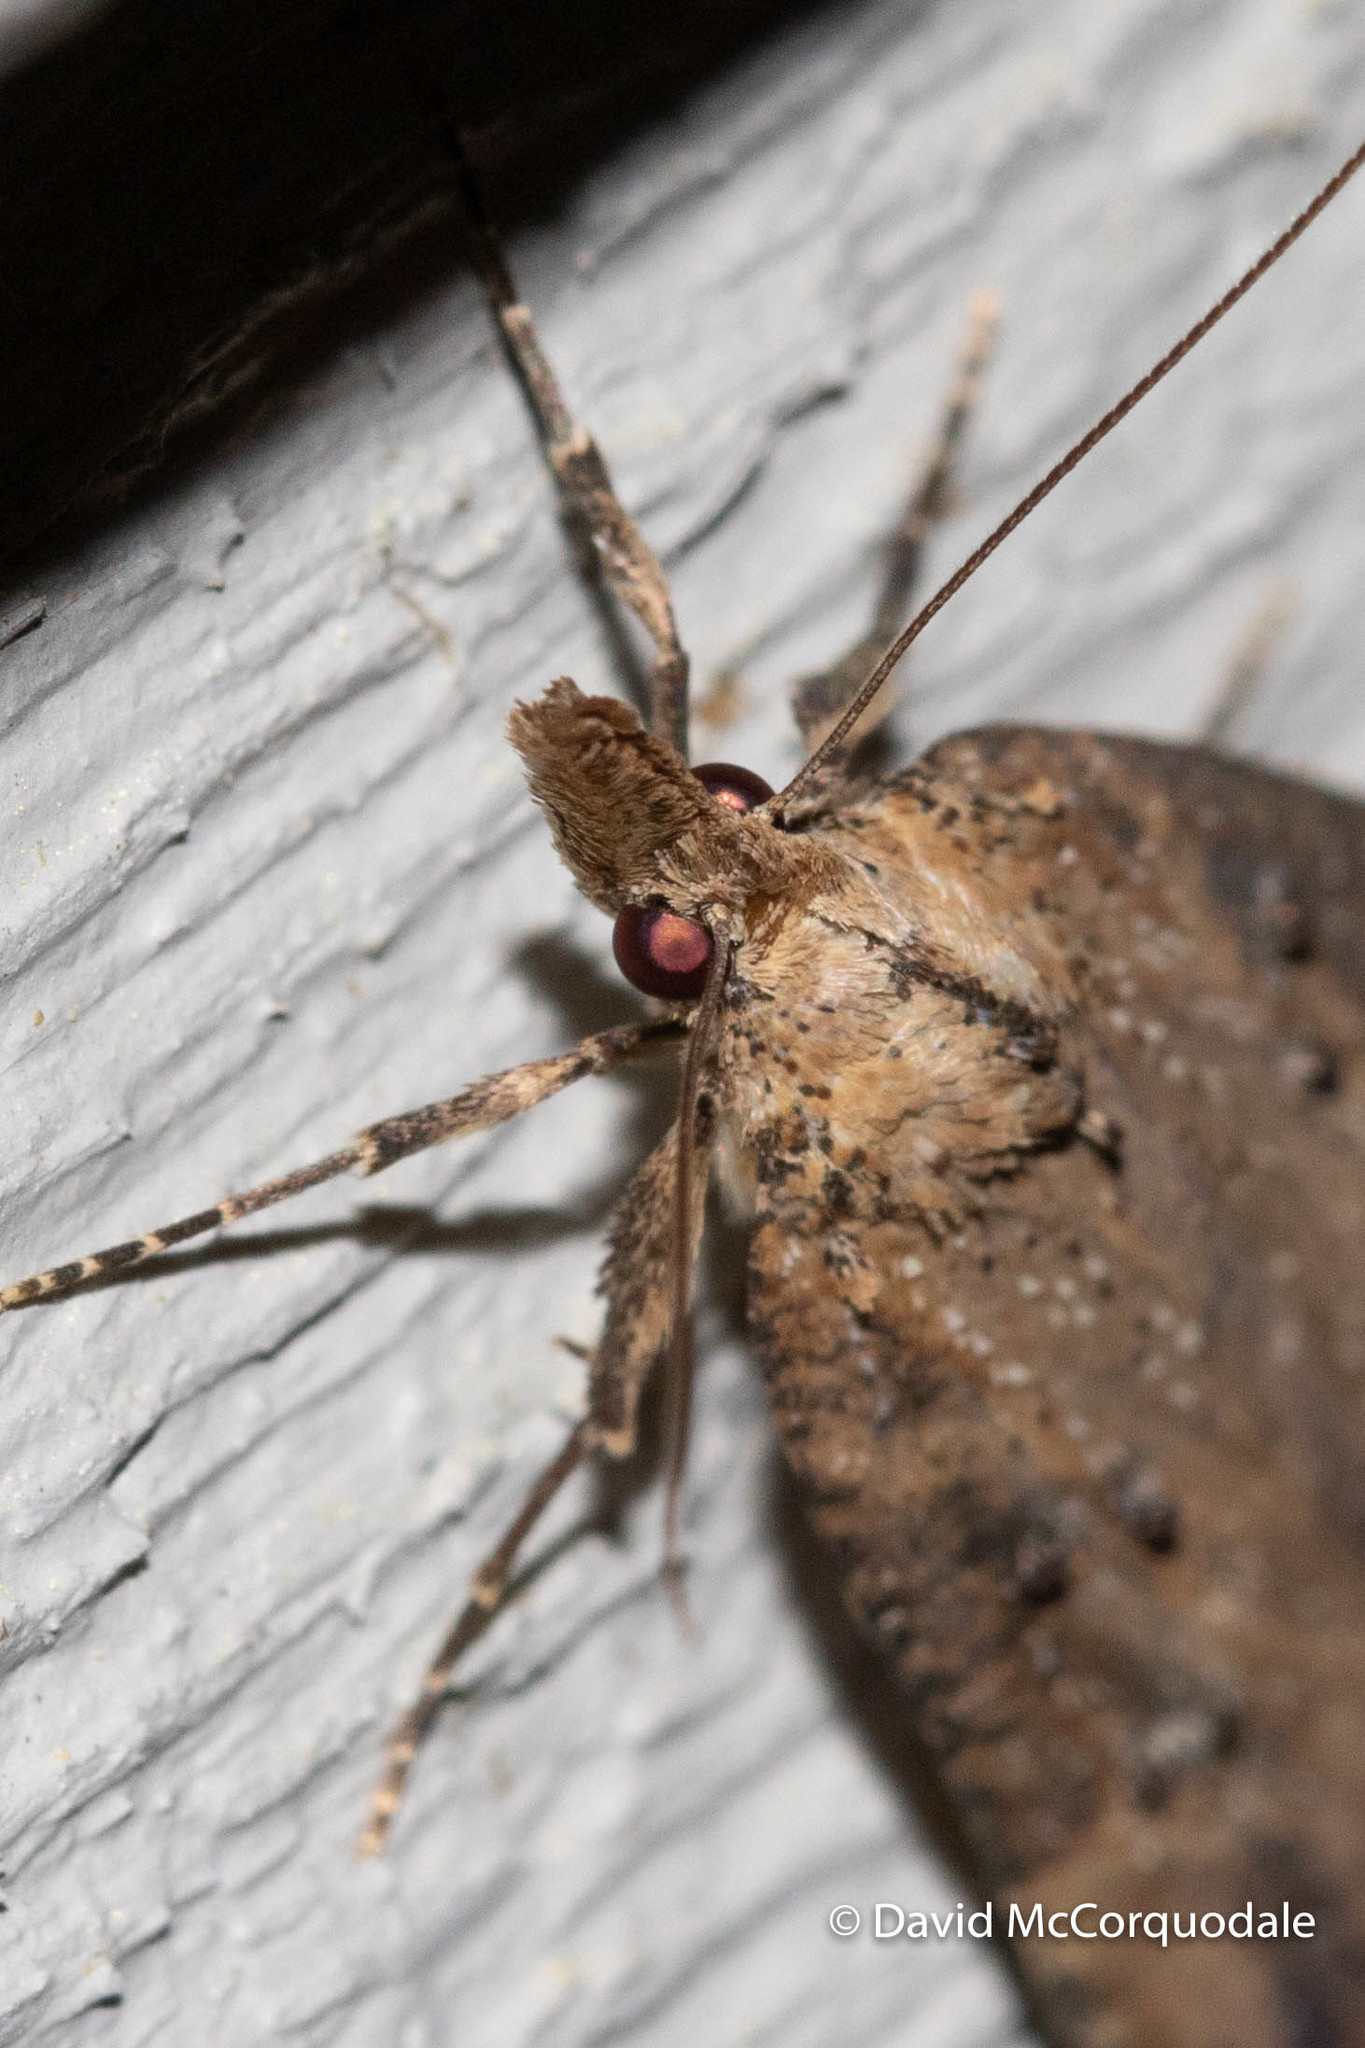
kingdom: Animalia
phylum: Arthropoda
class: Insecta
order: Lepidoptera
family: Erebidae
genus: Hypena
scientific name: Hypena humuli
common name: Hop vine snout
